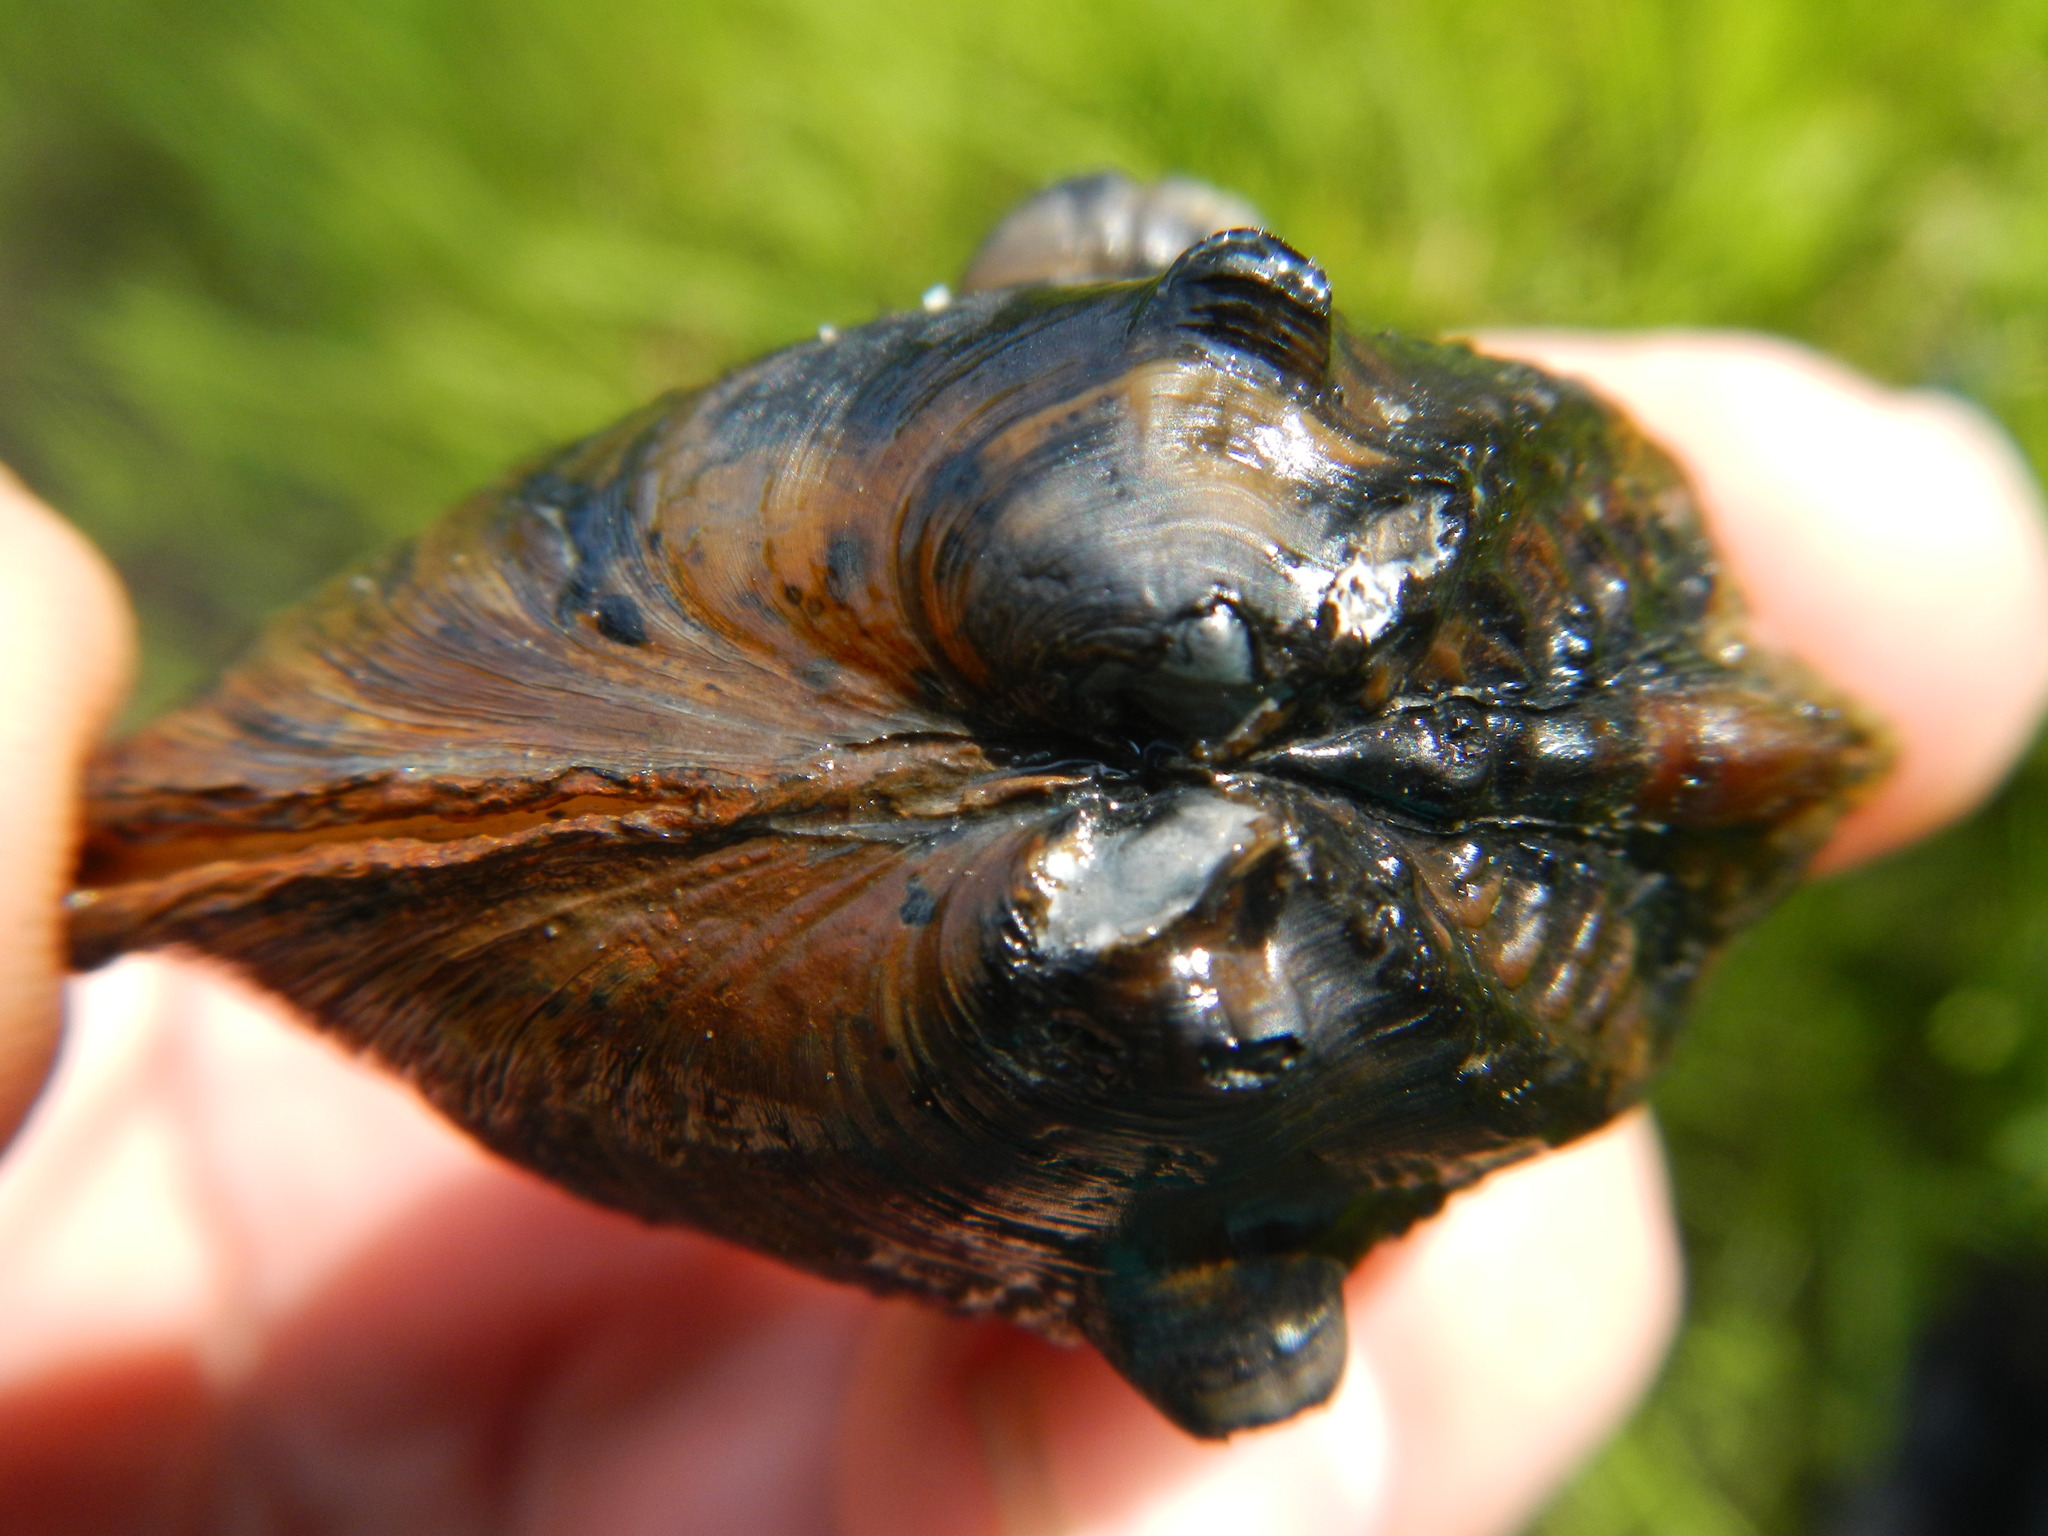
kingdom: Animalia
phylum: Mollusca
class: Bivalvia
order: Unionida
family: Unionidae
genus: Obliquaria
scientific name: Obliquaria reflexa
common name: Threehorn wartyback
